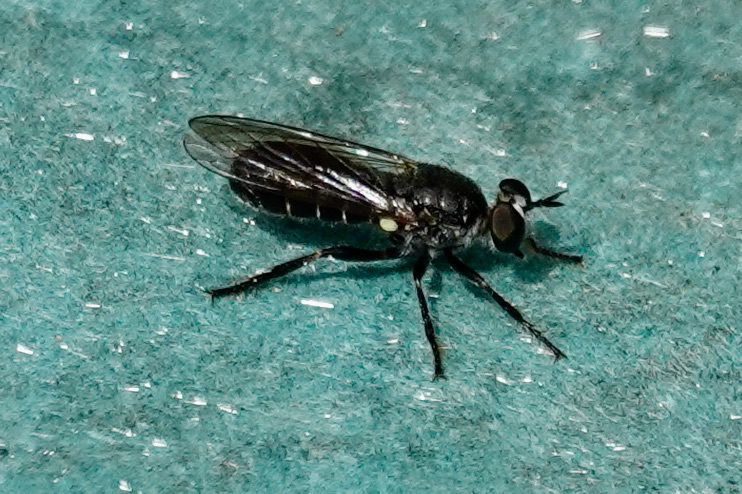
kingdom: Animalia
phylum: Arthropoda
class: Insecta
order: Diptera
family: Asilidae
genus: Atomosia
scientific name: Atomosia puella
